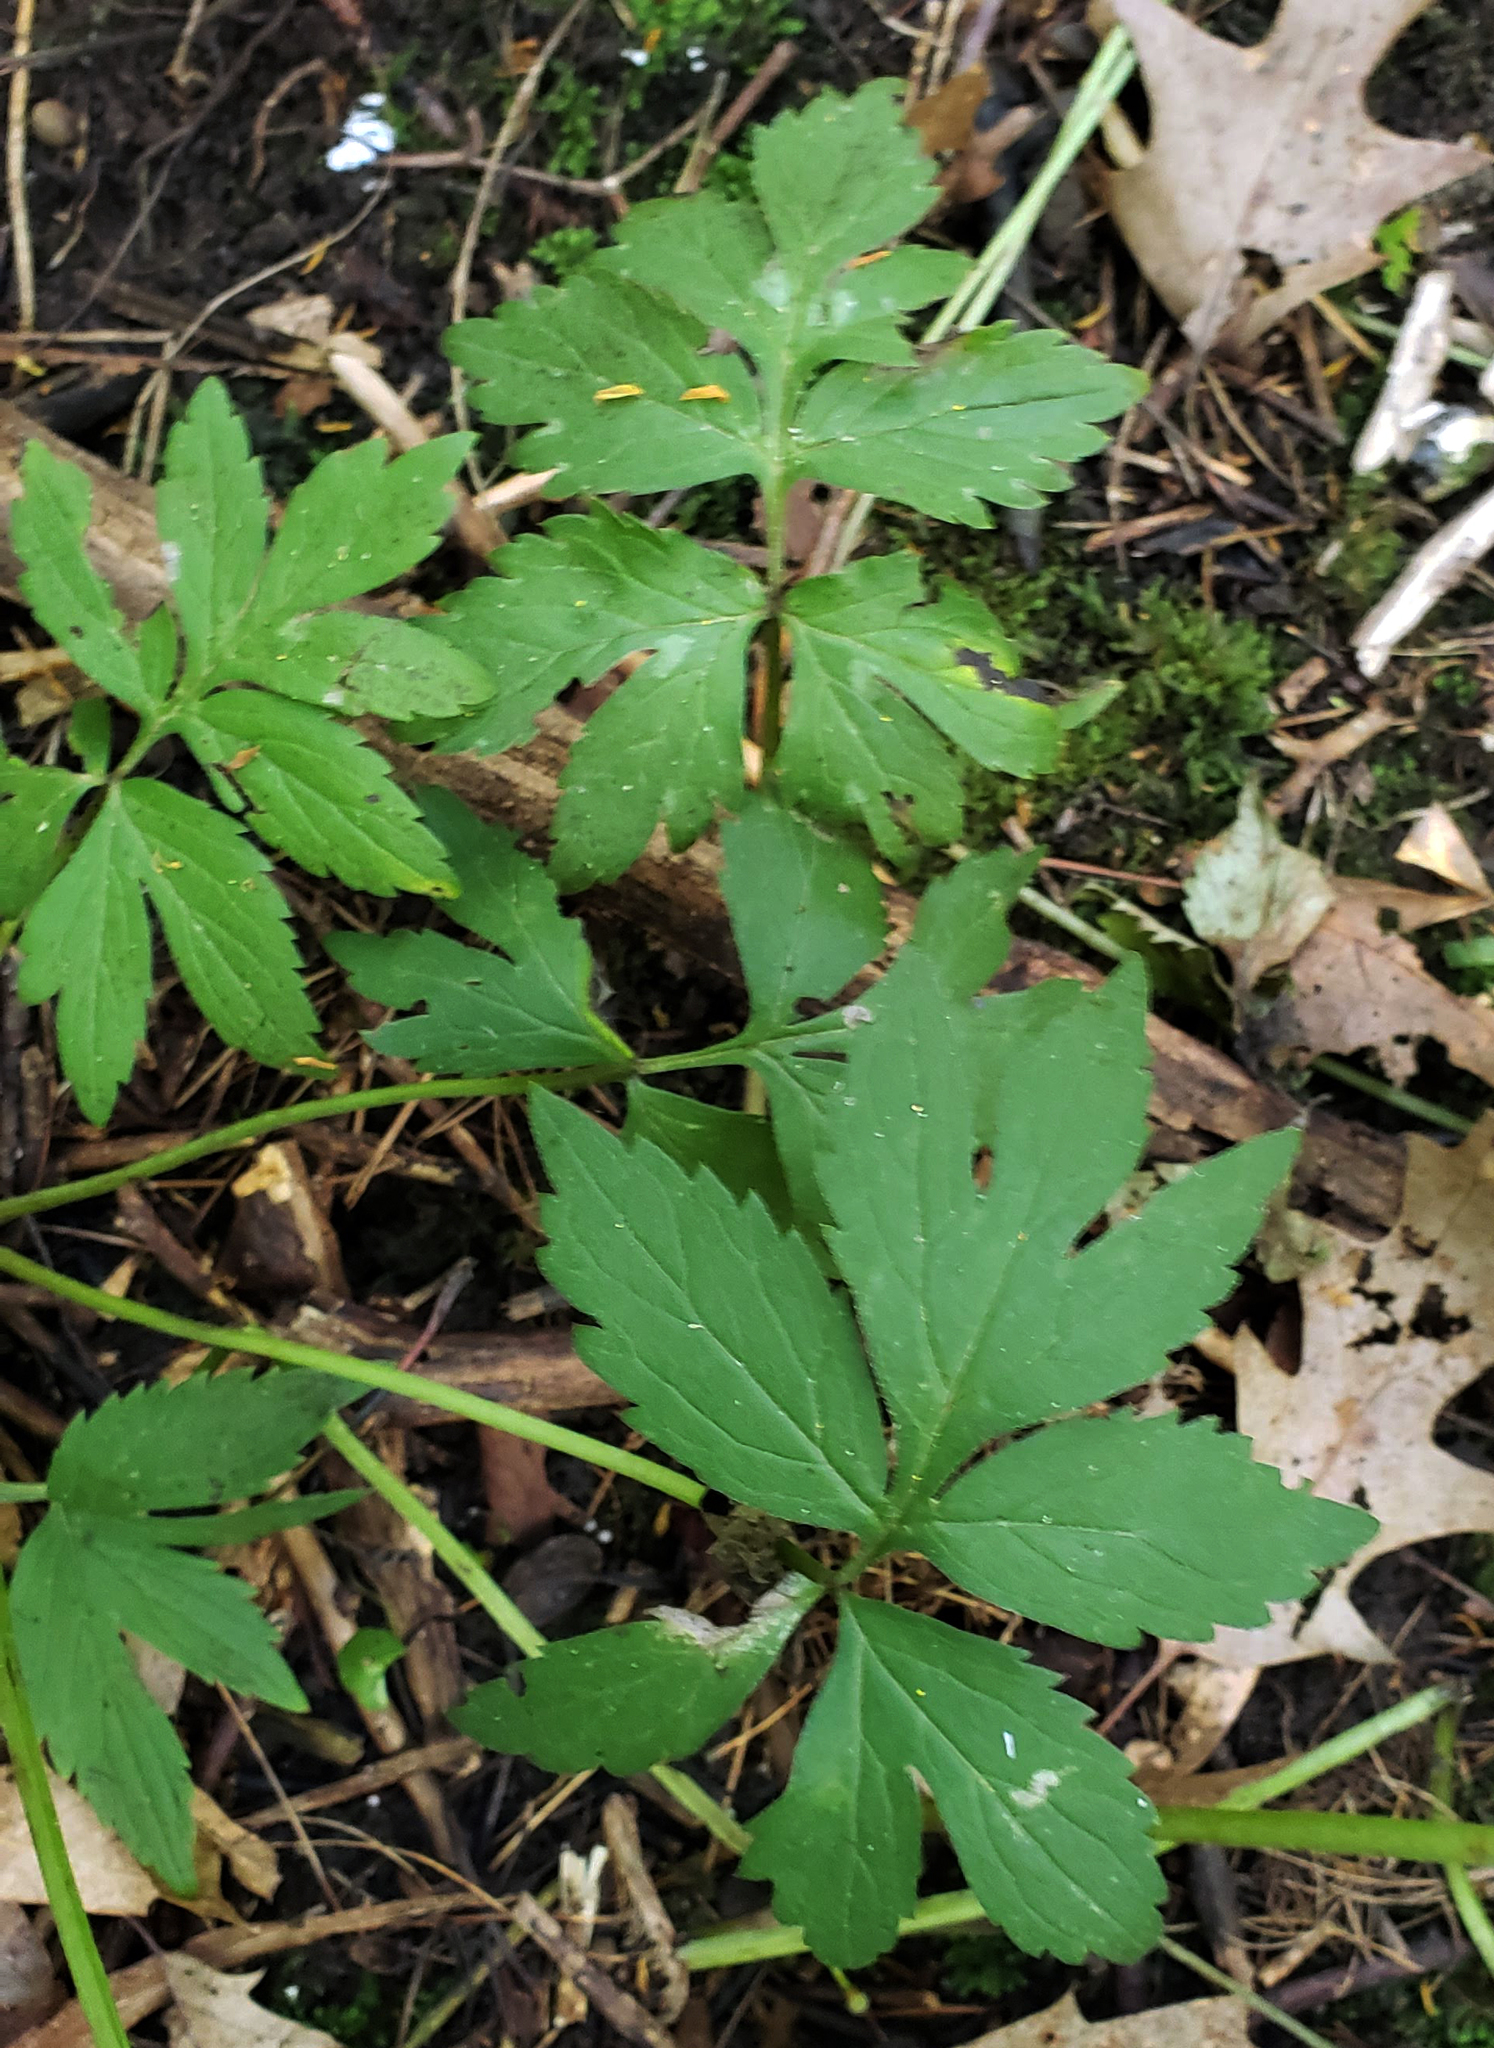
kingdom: Plantae
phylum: Tracheophyta
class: Magnoliopsida
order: Boraginales
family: Hydrophyllaceae
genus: Hydrophyllum
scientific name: Hydrophyllum virginianum
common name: Virginia waterleaf
